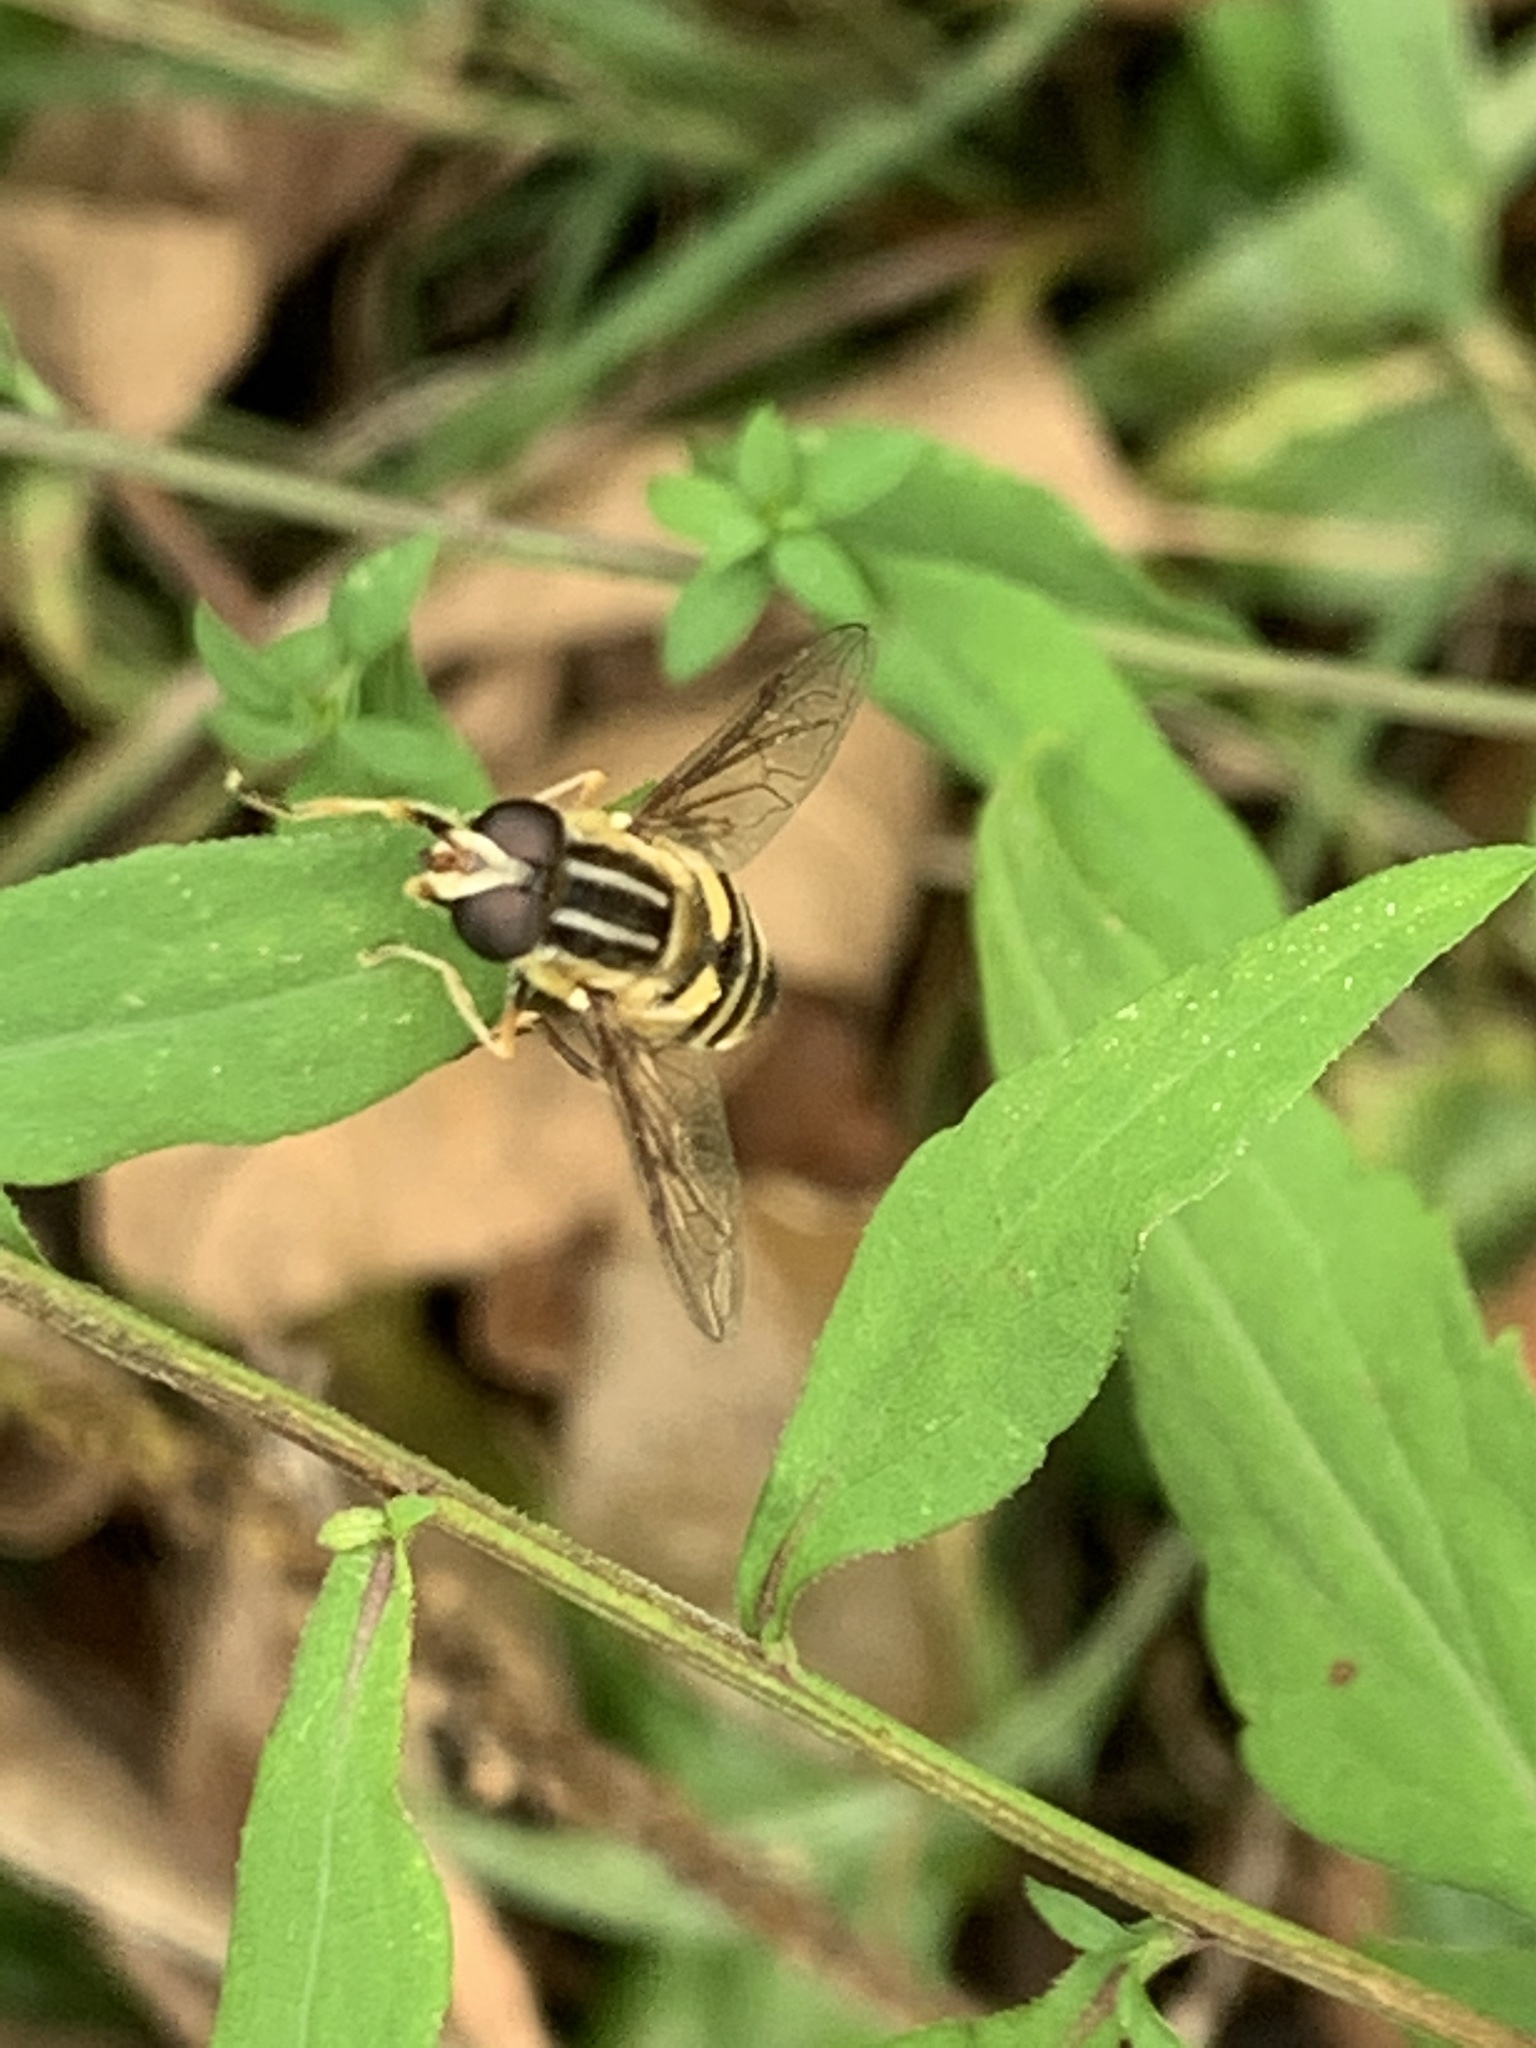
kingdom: Animalia
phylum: Arthropoda
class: Insecta
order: Diptera
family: Syrphidae
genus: Helophilus
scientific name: Helophilus fasciatus
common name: Narrow-headed marsh fly
